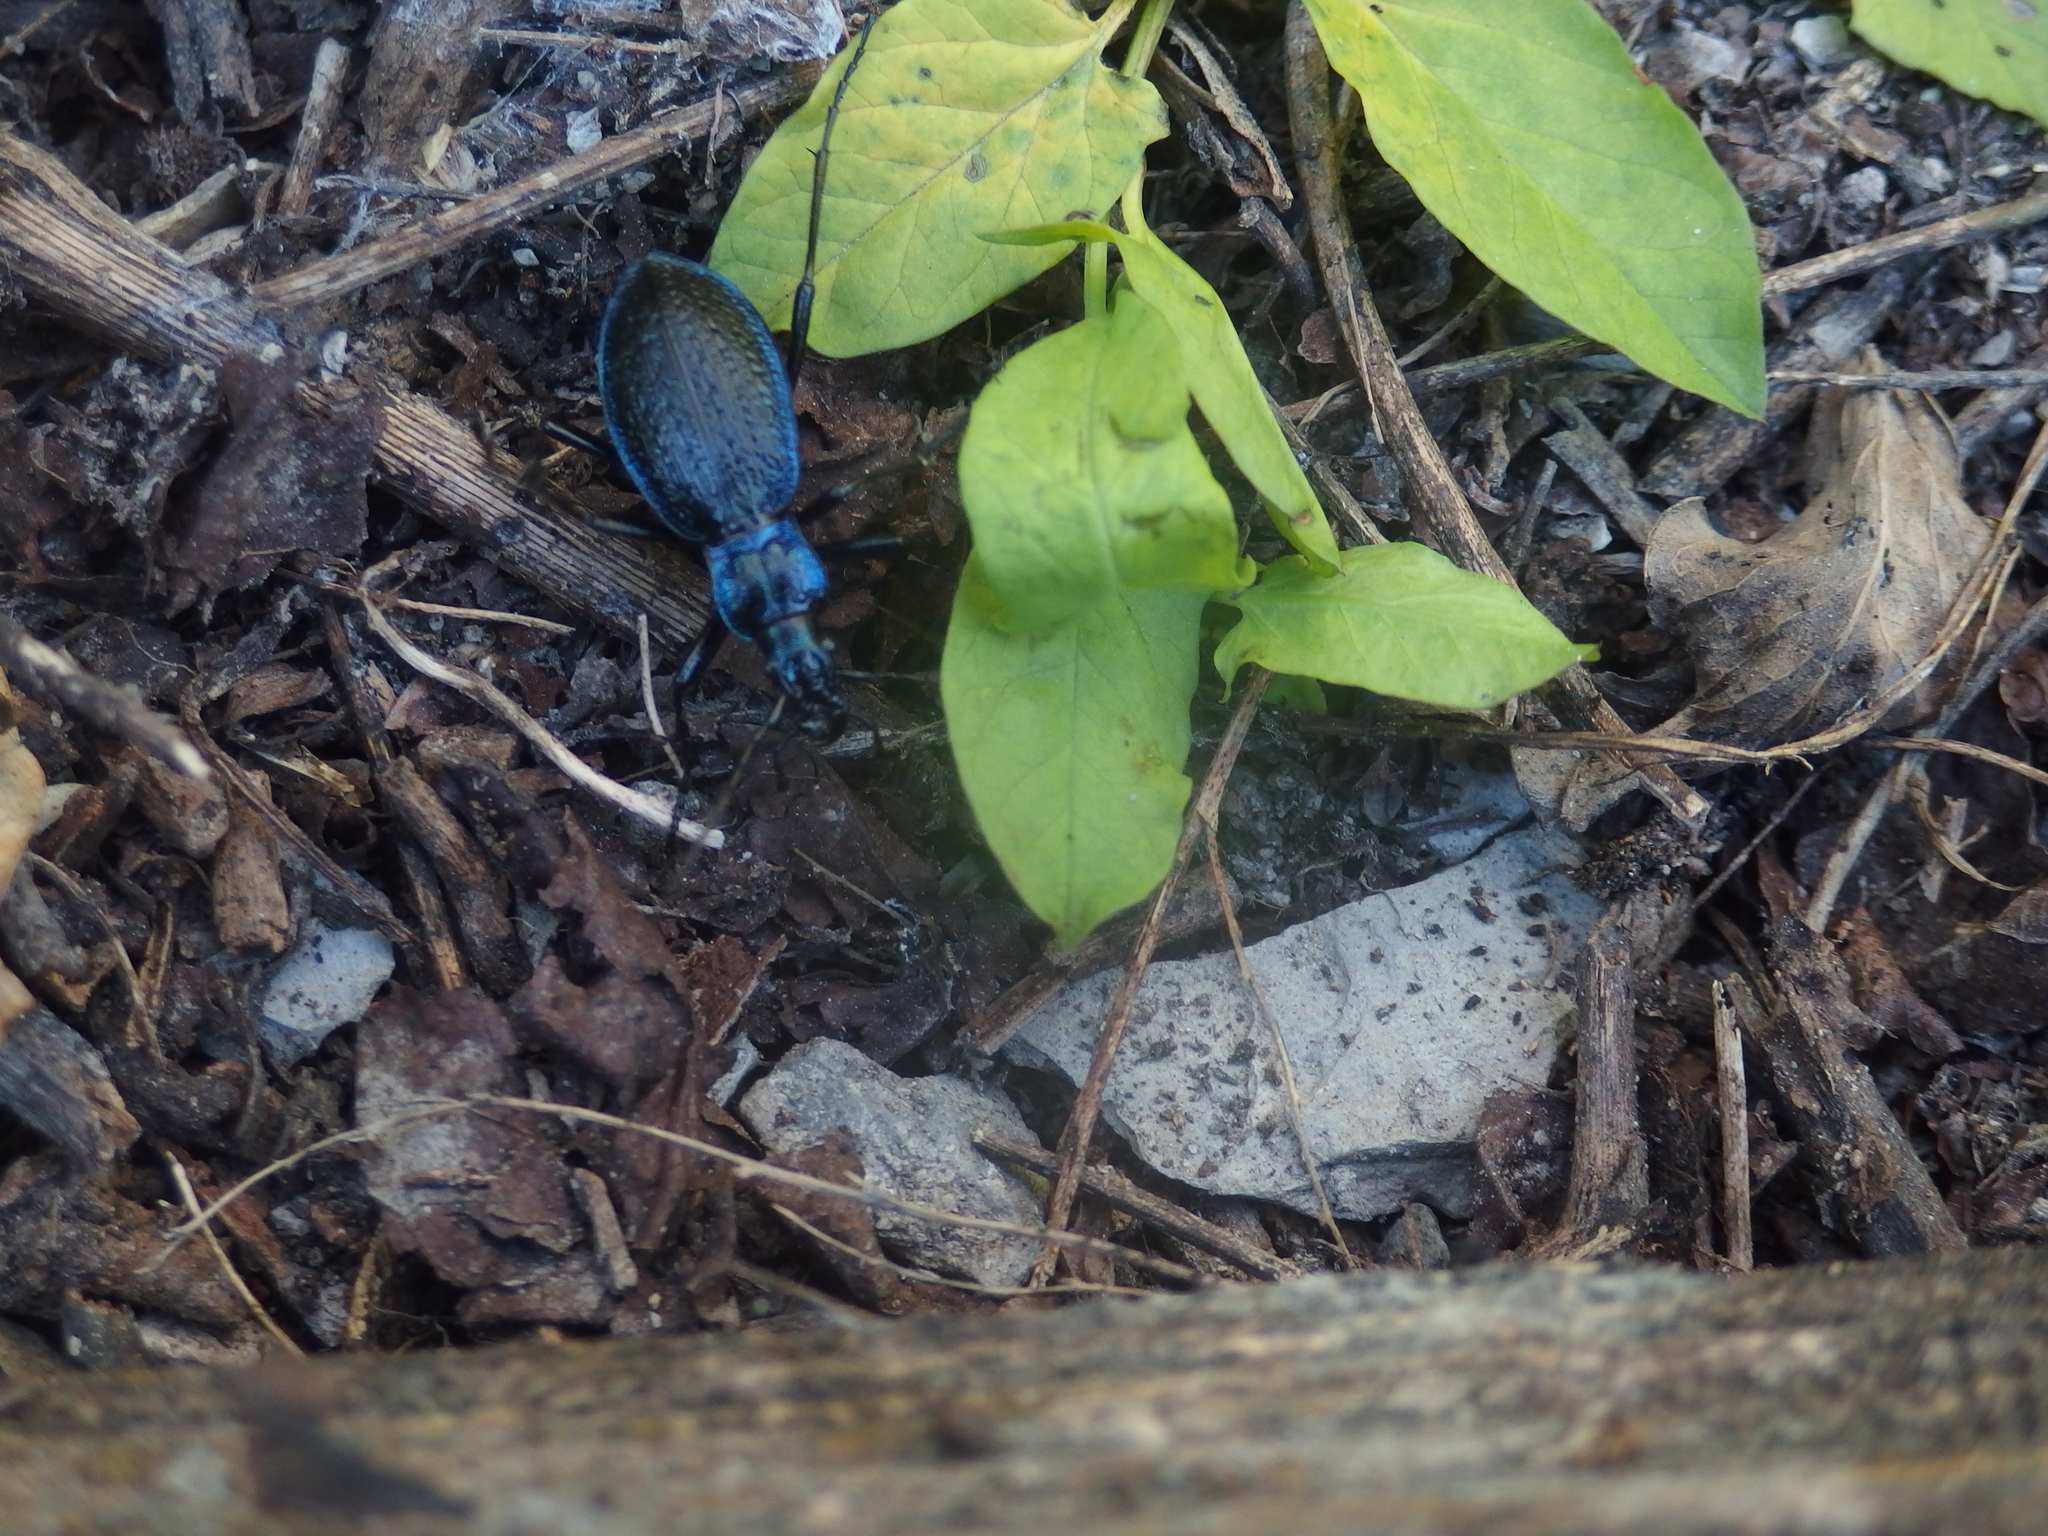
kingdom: Animalia
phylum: Arthropoda
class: Insecta
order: Coleoptera
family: Carabidae
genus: Carabus
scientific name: Carabus intricatus
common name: Blue ground beetle
